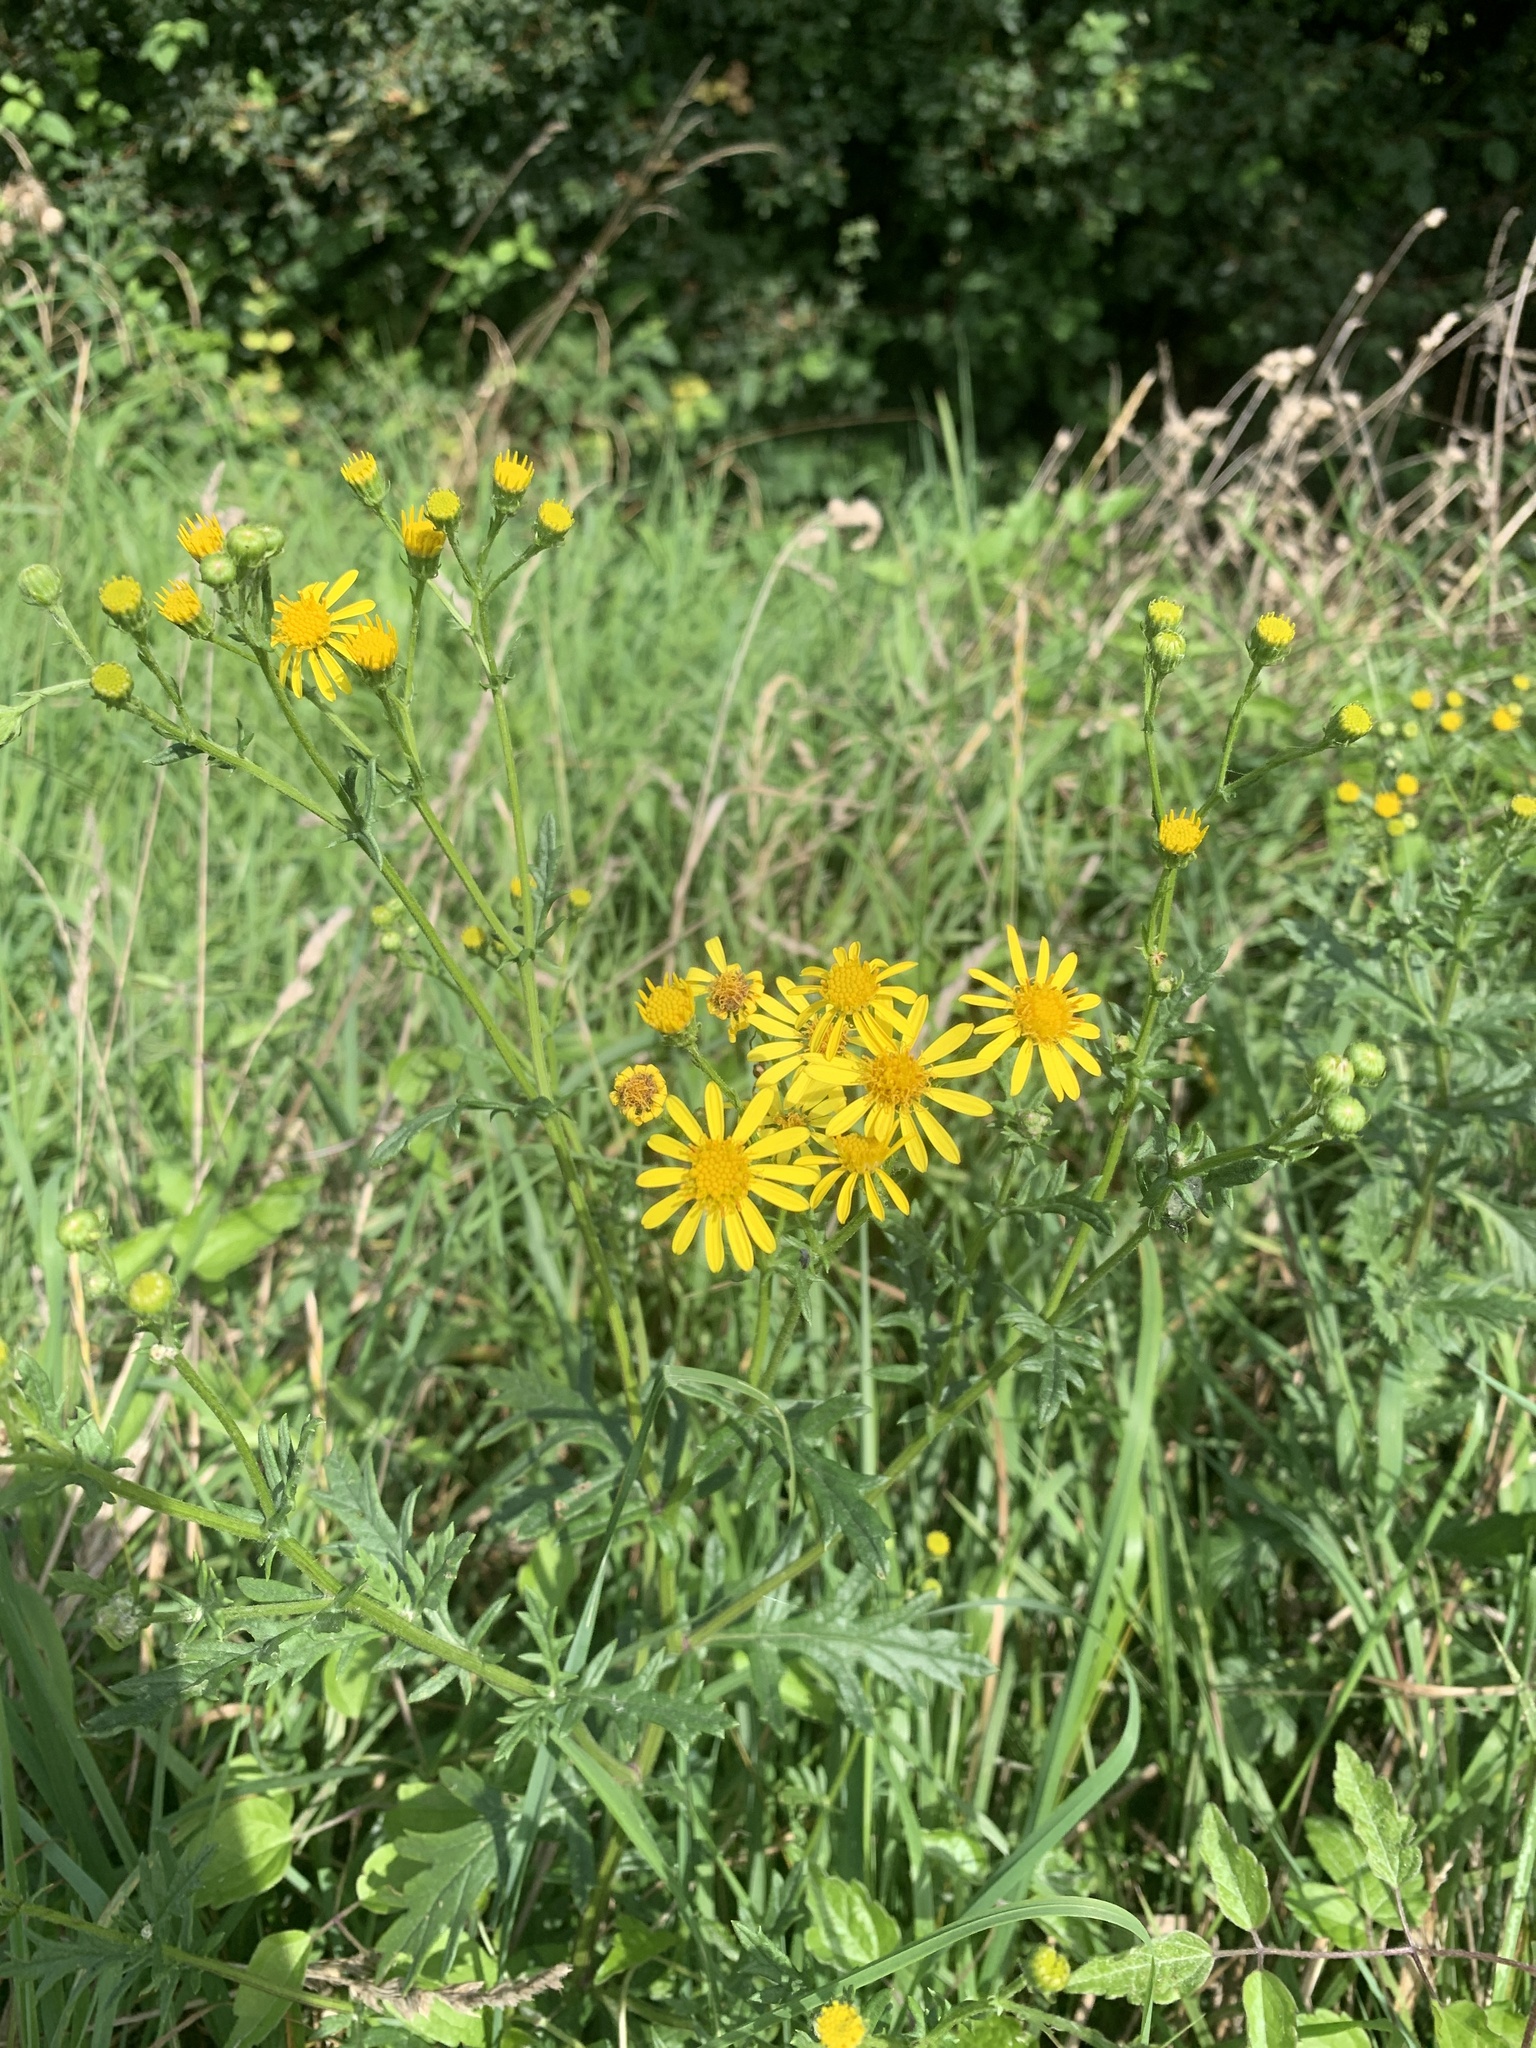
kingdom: Plantae
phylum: Tracheophyta
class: Magnoliopsida
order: Asterales
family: Asteraceae
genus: Jacobaea
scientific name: Jacobaea erucifolia
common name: Hoary ragwort
